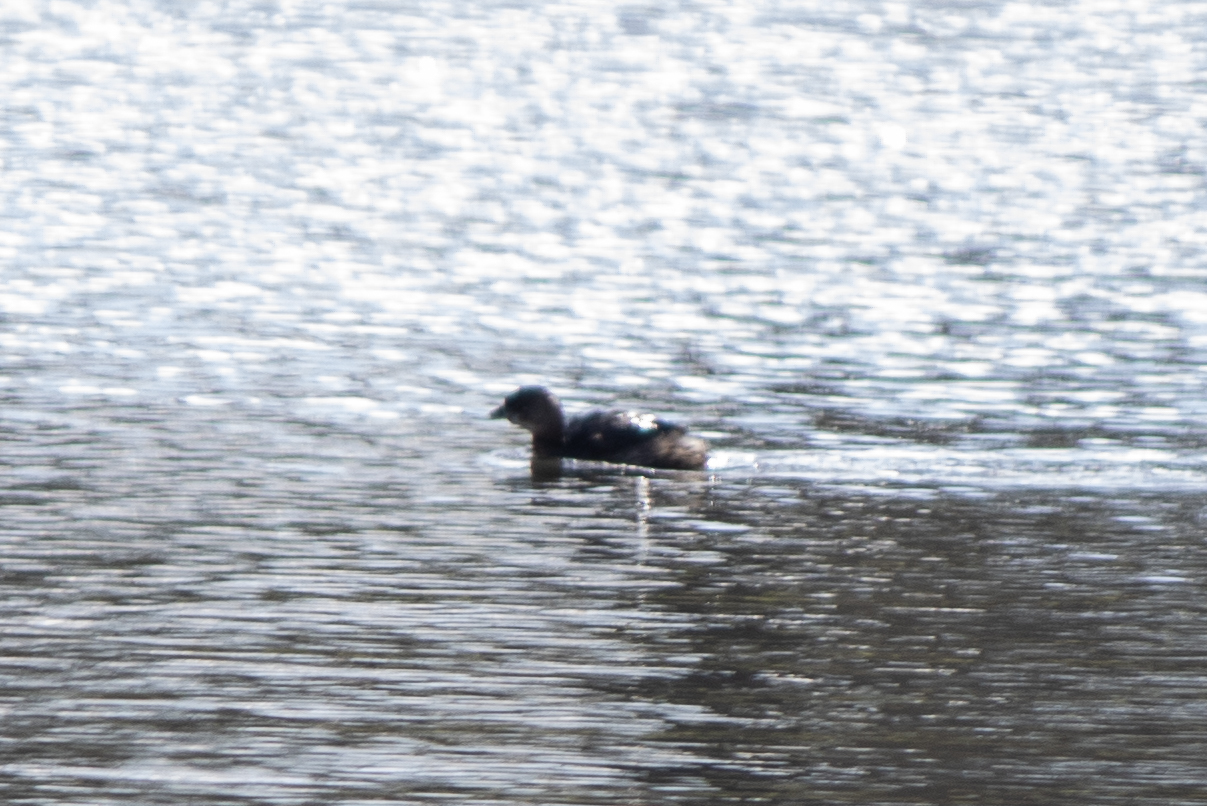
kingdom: Animalia
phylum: Chordata
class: Aves
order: Podicipediformes
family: Podicipedidae
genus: Podilymbus
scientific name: Podilymbus podiceps
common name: Pied-billed grebe
